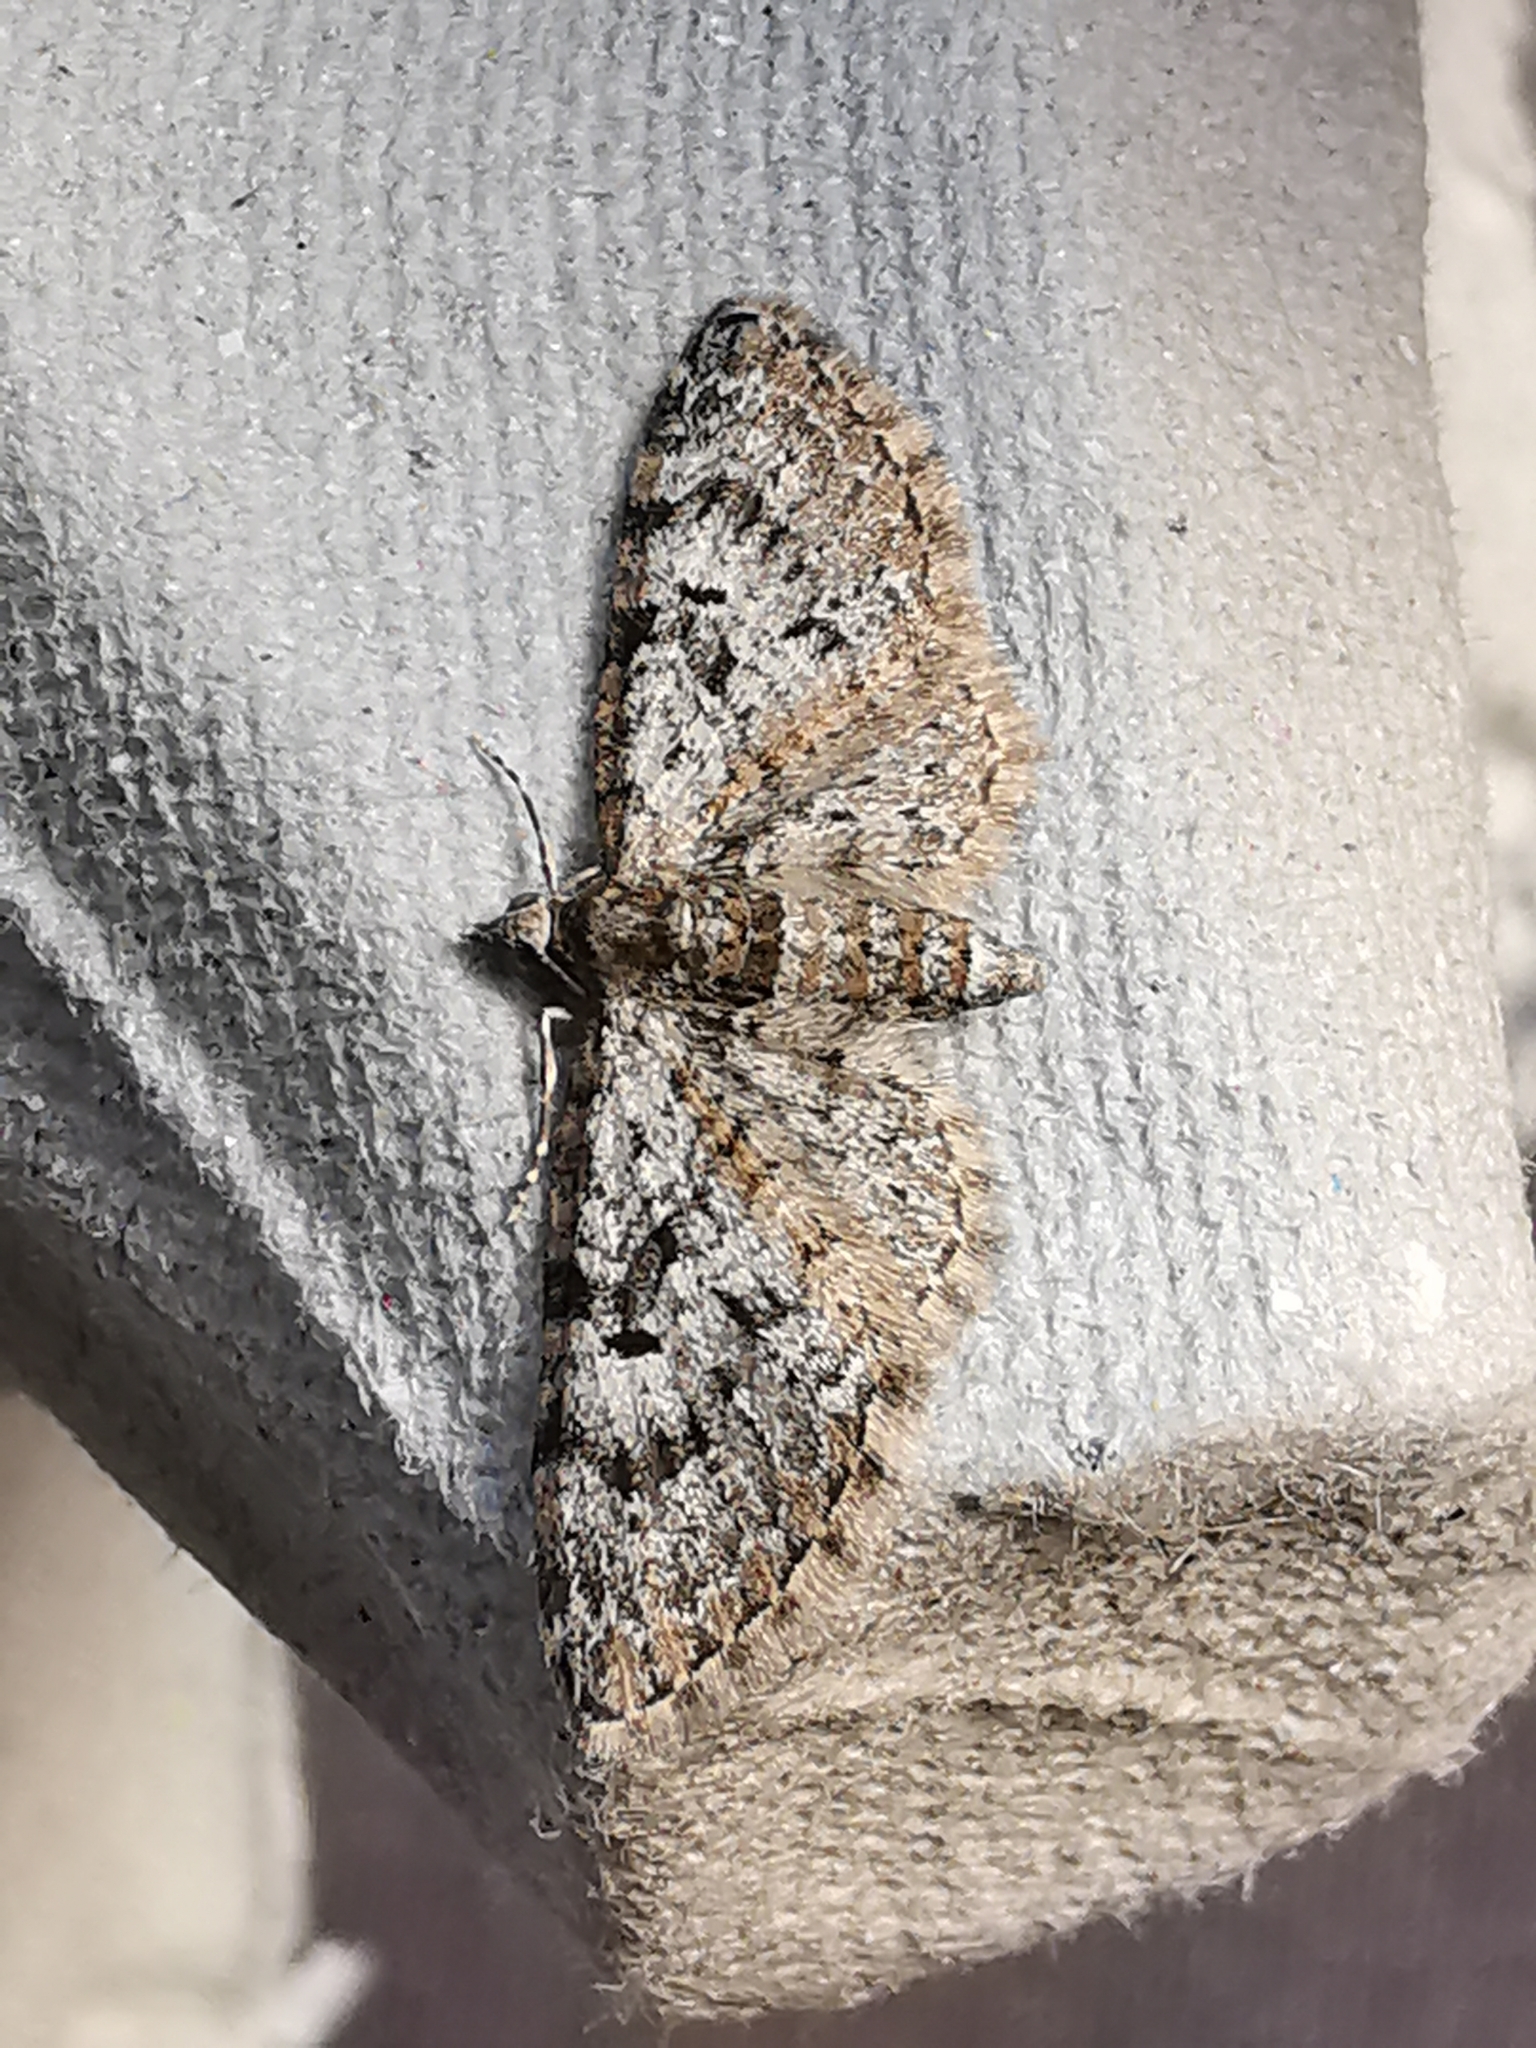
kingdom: Animalia
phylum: Arthropoda
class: Insecta
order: Lepidoptera
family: Geometridae
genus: Eupithecia
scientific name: Eupithecia dodoneata
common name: Oak-tree pug
